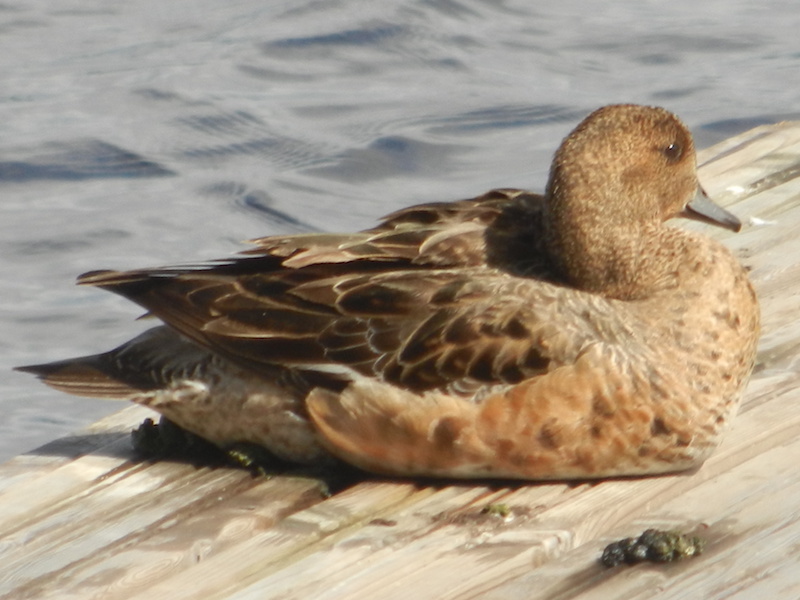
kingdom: Animalia
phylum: Chordata
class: Aves
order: Anseriformes
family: Anatidae
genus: Mareca
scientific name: Mareca penelope
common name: Eurasian wigeon
